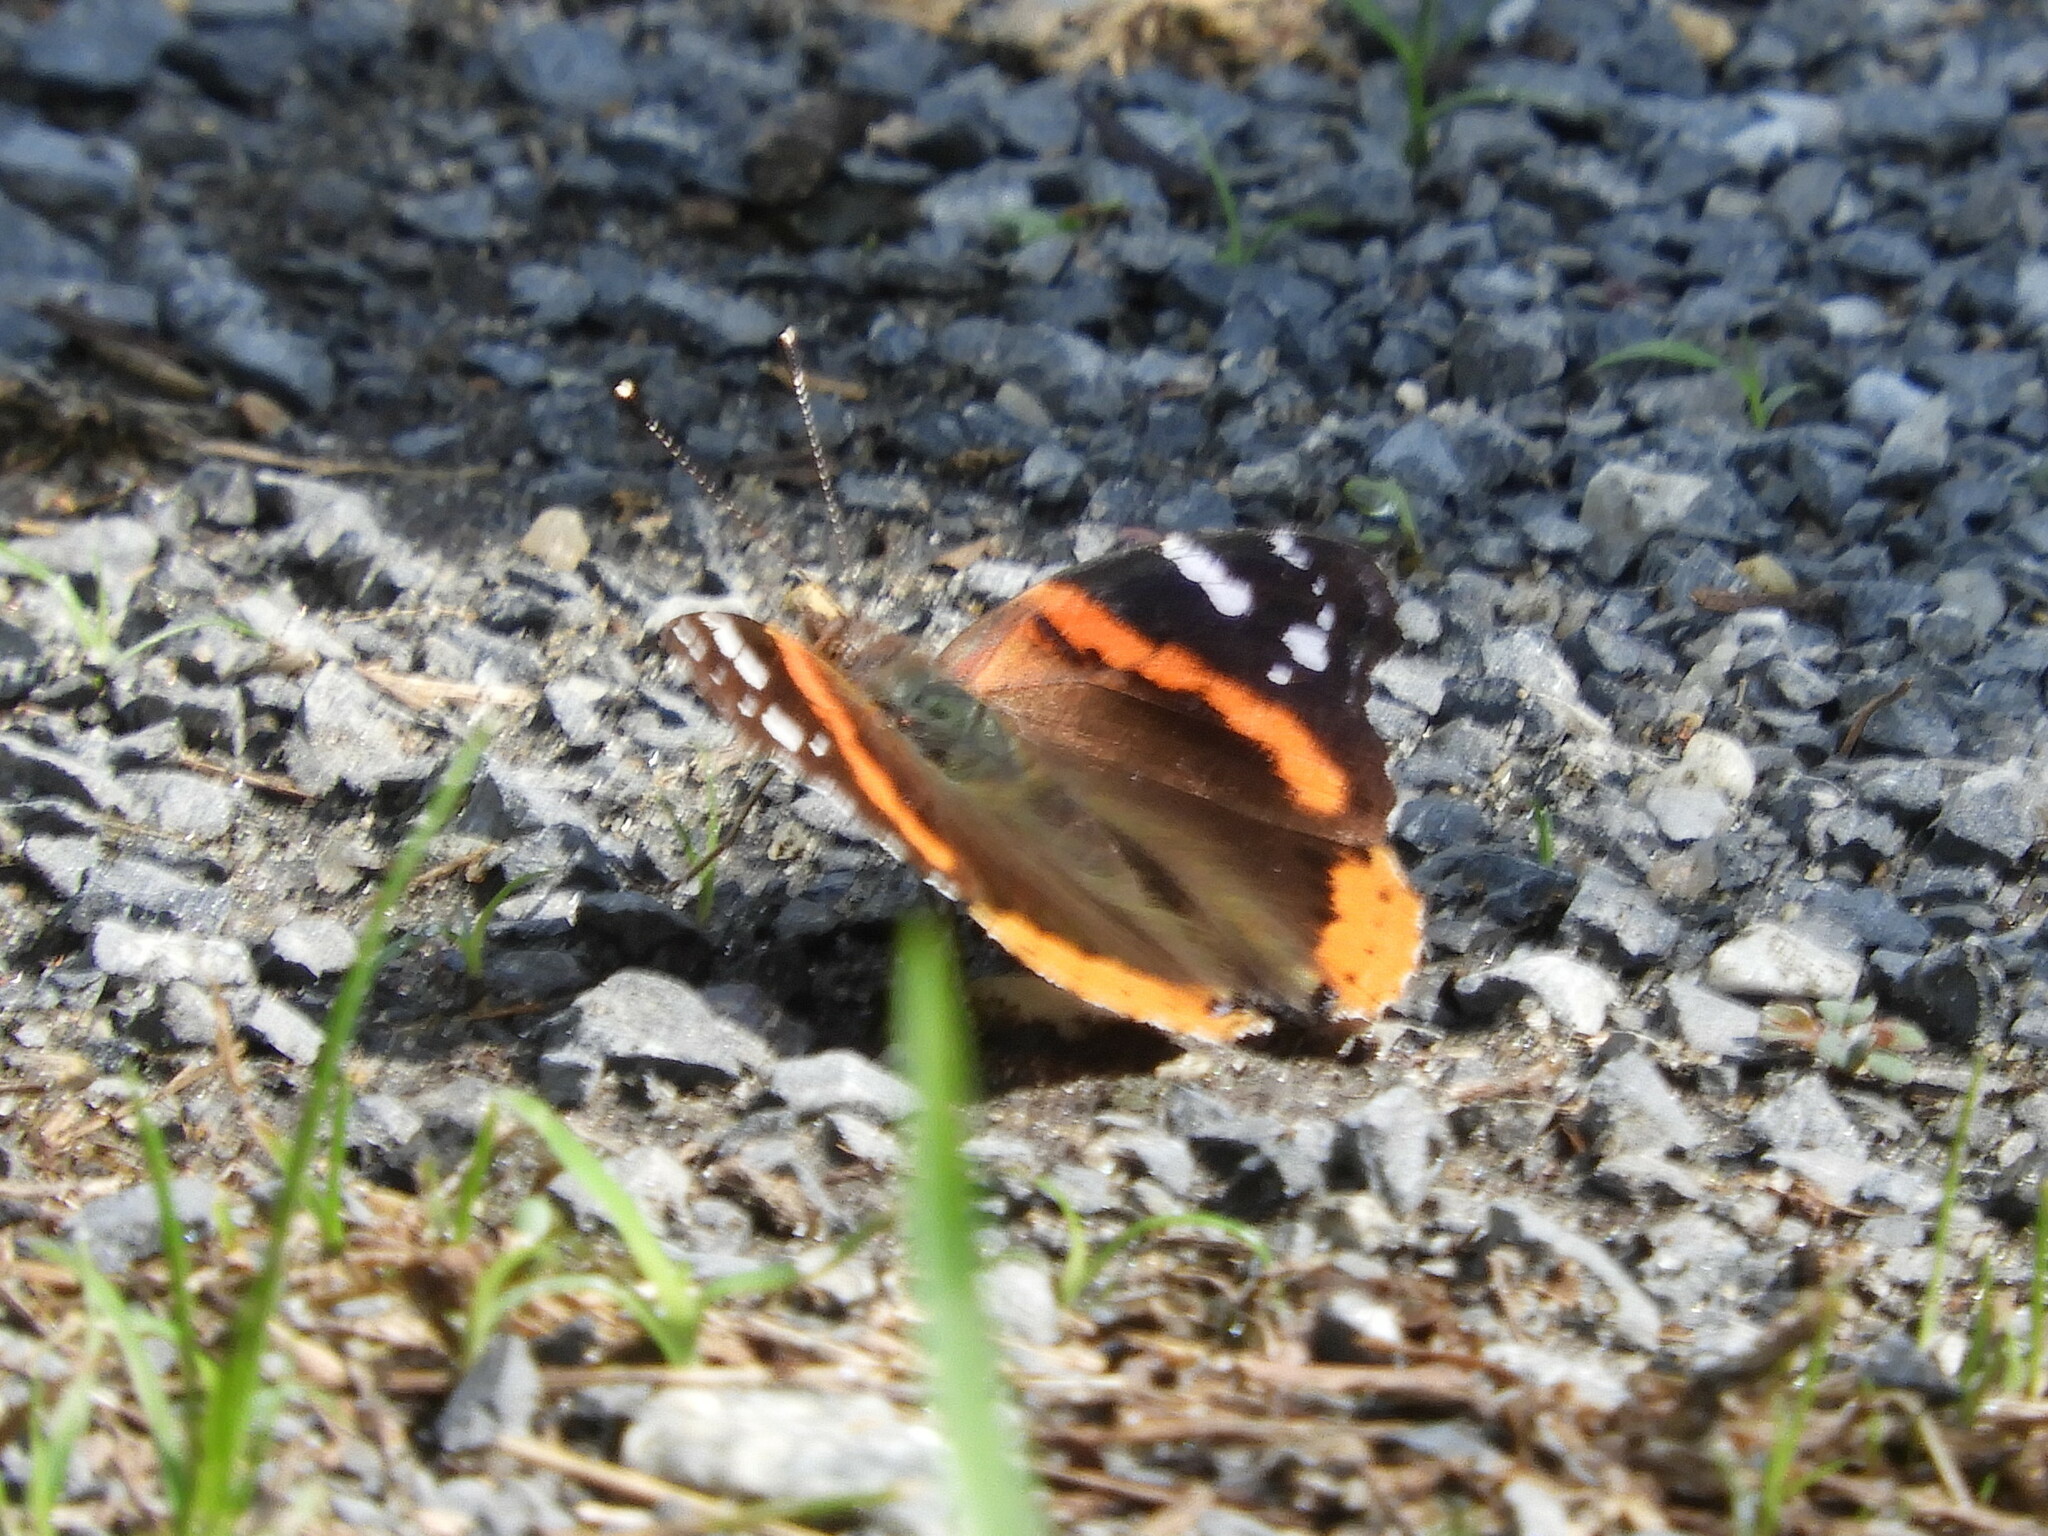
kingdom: Animalia
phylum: Arthropoda
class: Insecta
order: Lepidoptera
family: Nymphalidae
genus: Vanessa
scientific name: Vanessa atalanta
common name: Red admiral
